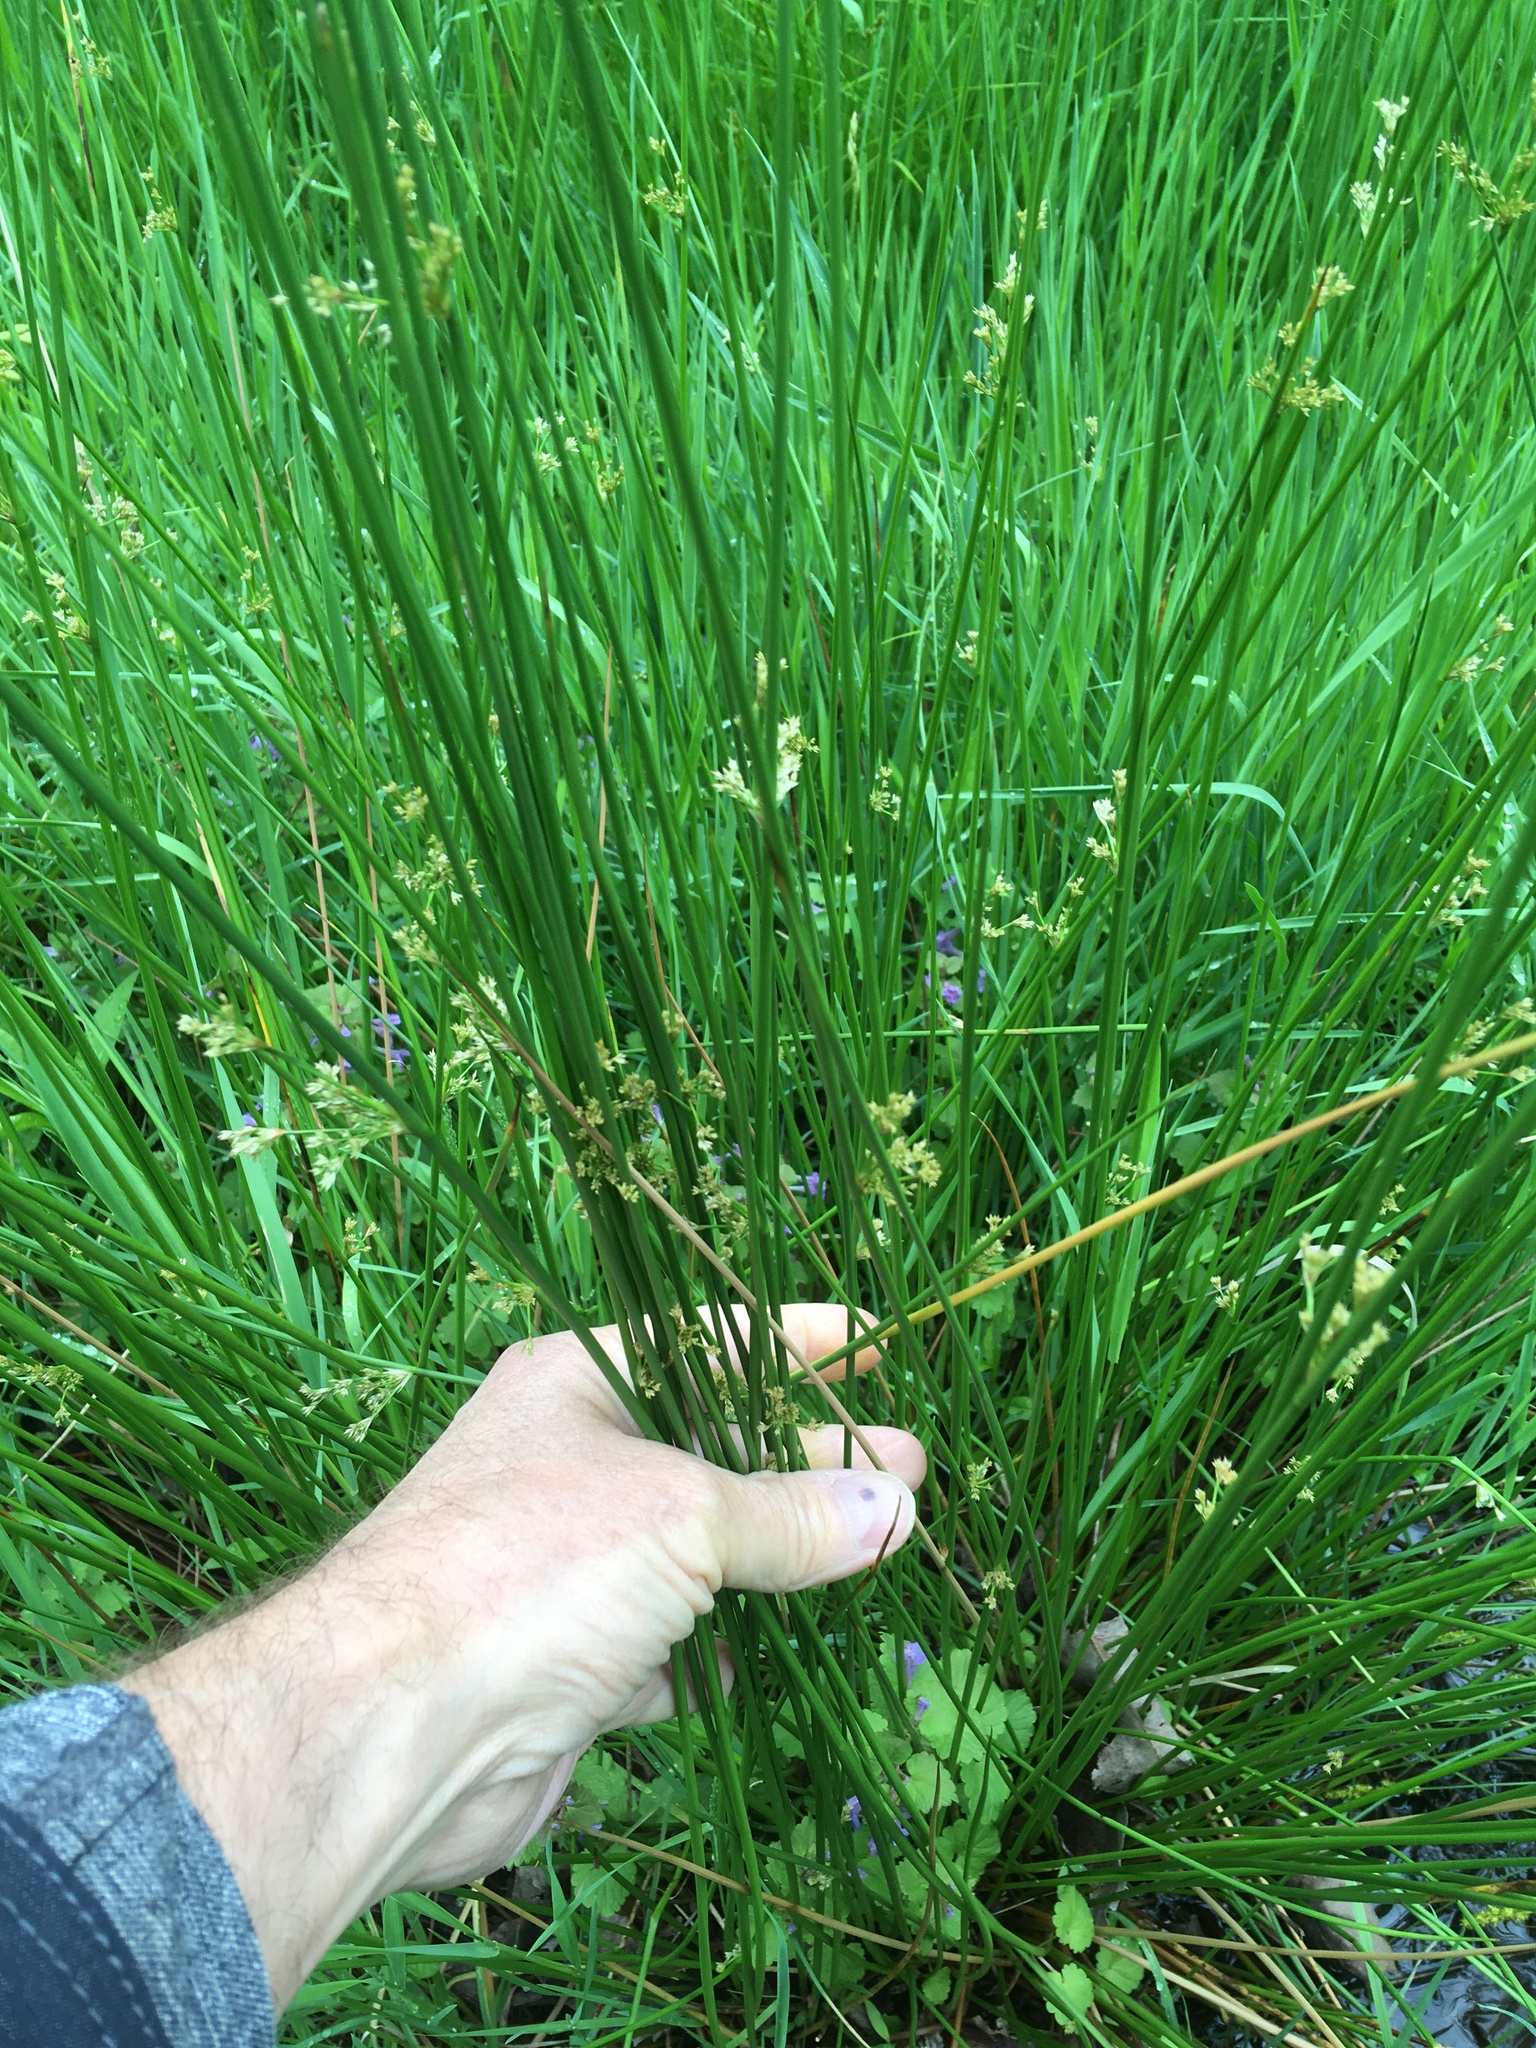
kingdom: Plantae
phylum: Tracheophyta
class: Liliopsida
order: Poales
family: Juncaceae
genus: Juncus
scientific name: Juncus effusus
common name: Soft rush
